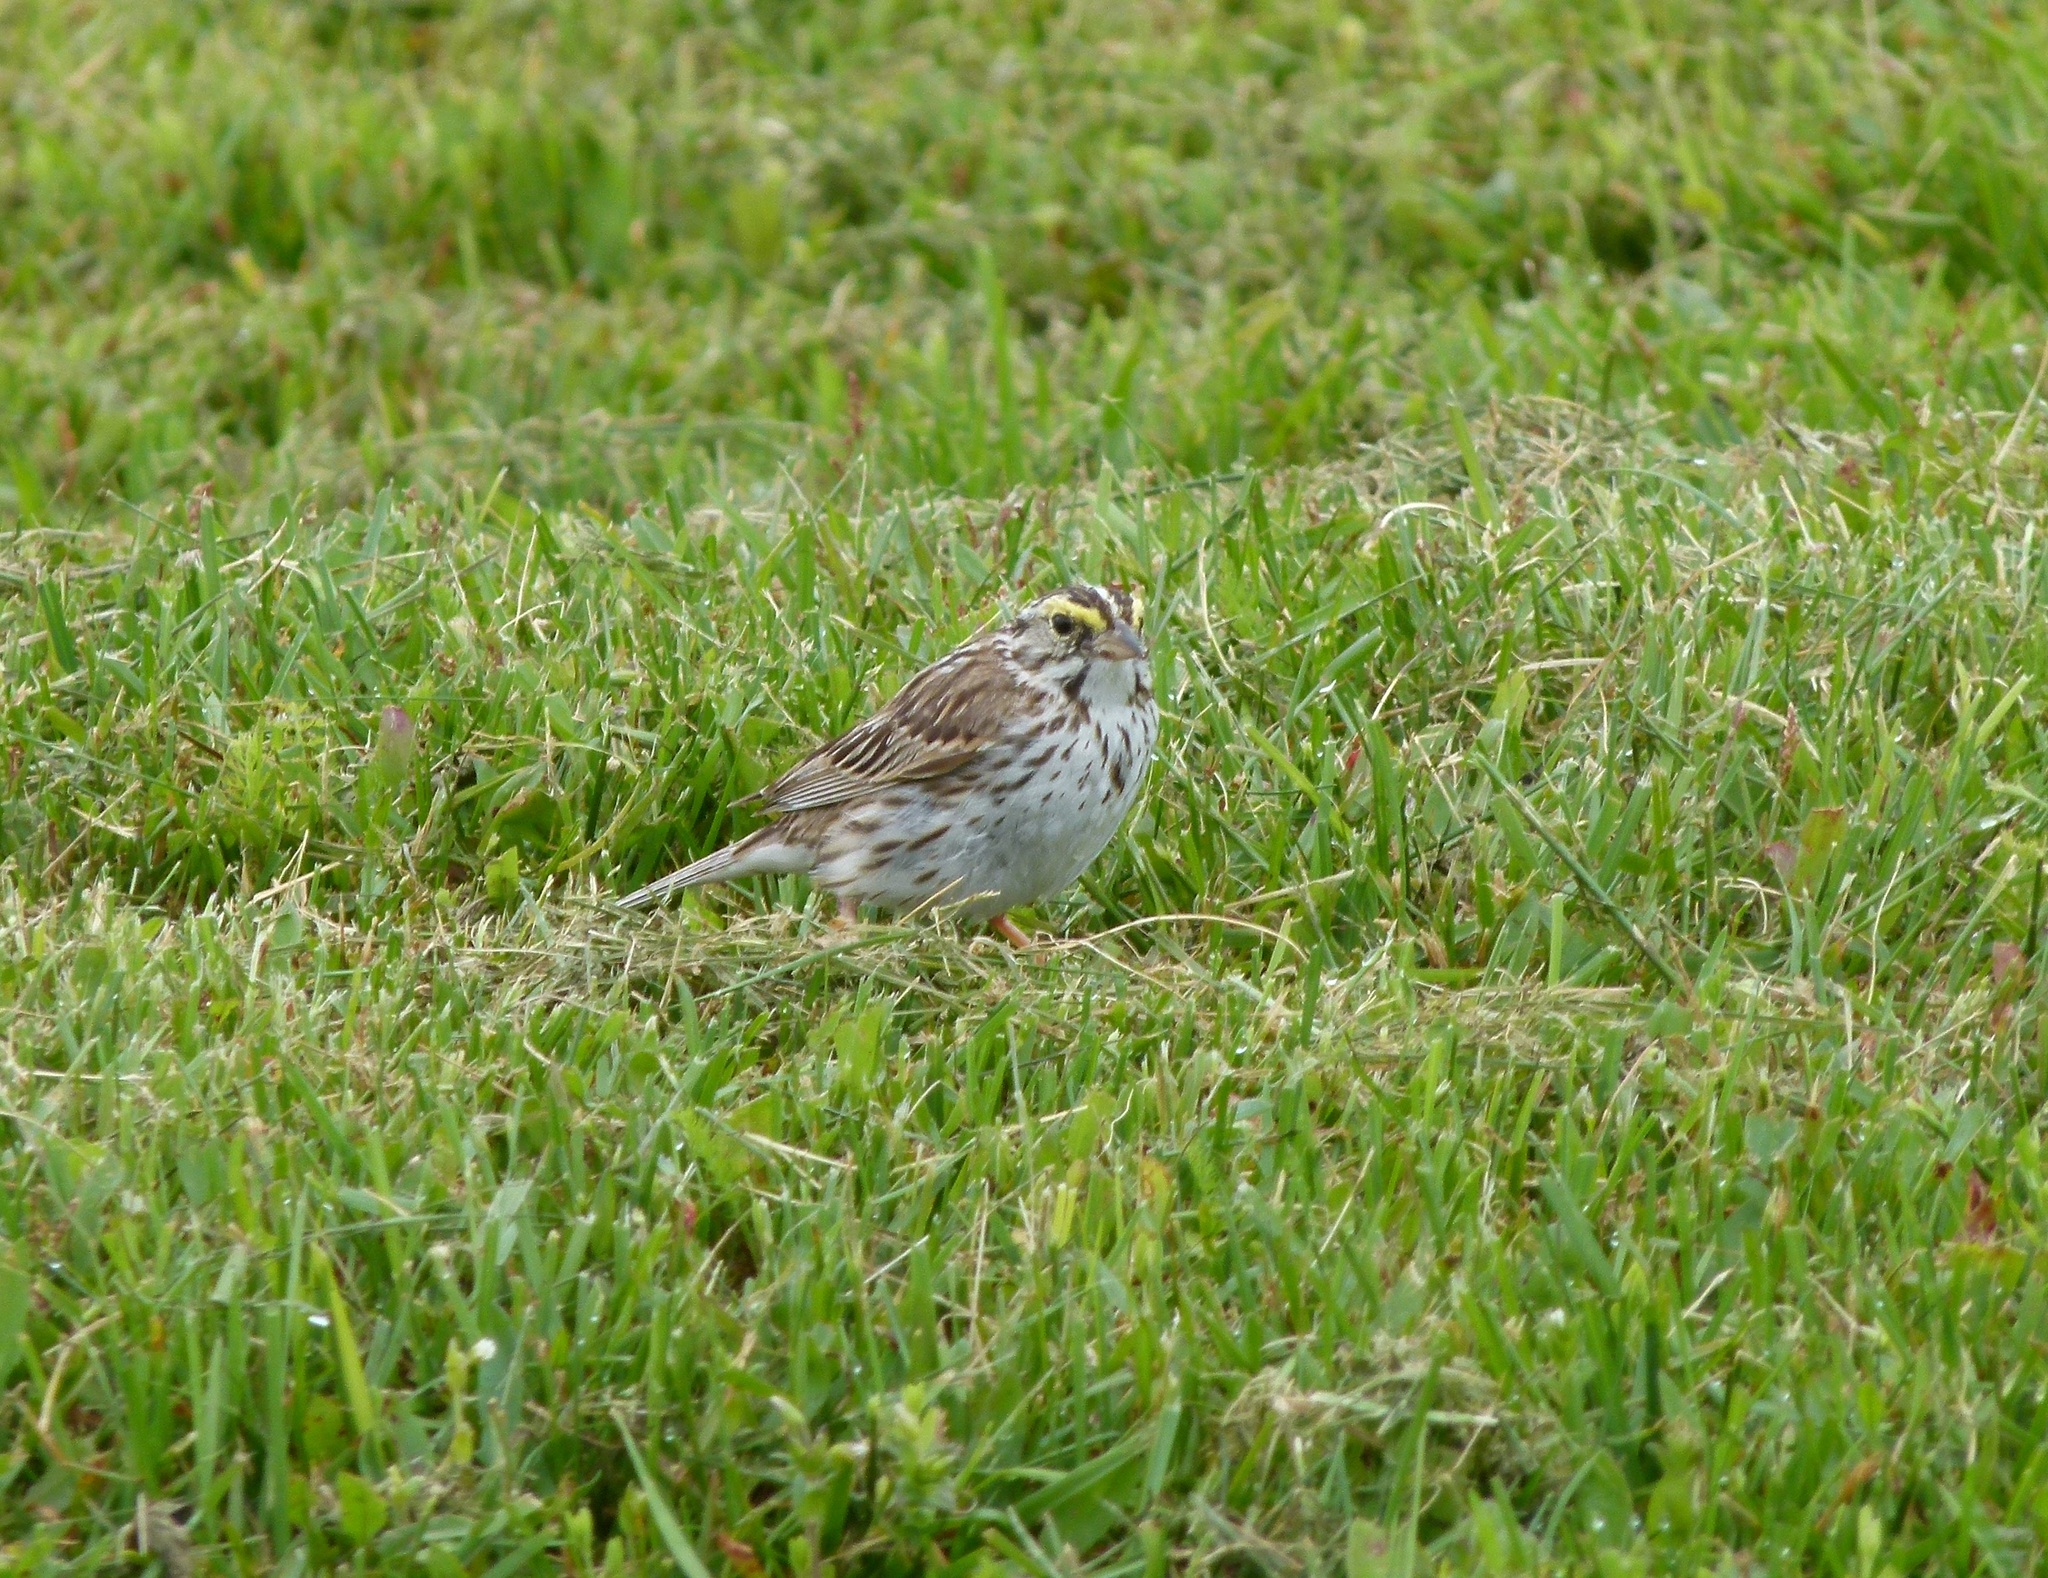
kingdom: Animalia
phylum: Chordata
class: Aves
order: Passeriformes
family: Passerellidae
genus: Passerculus
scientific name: Passerculus sandwichensis
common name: Savannah sparrow
